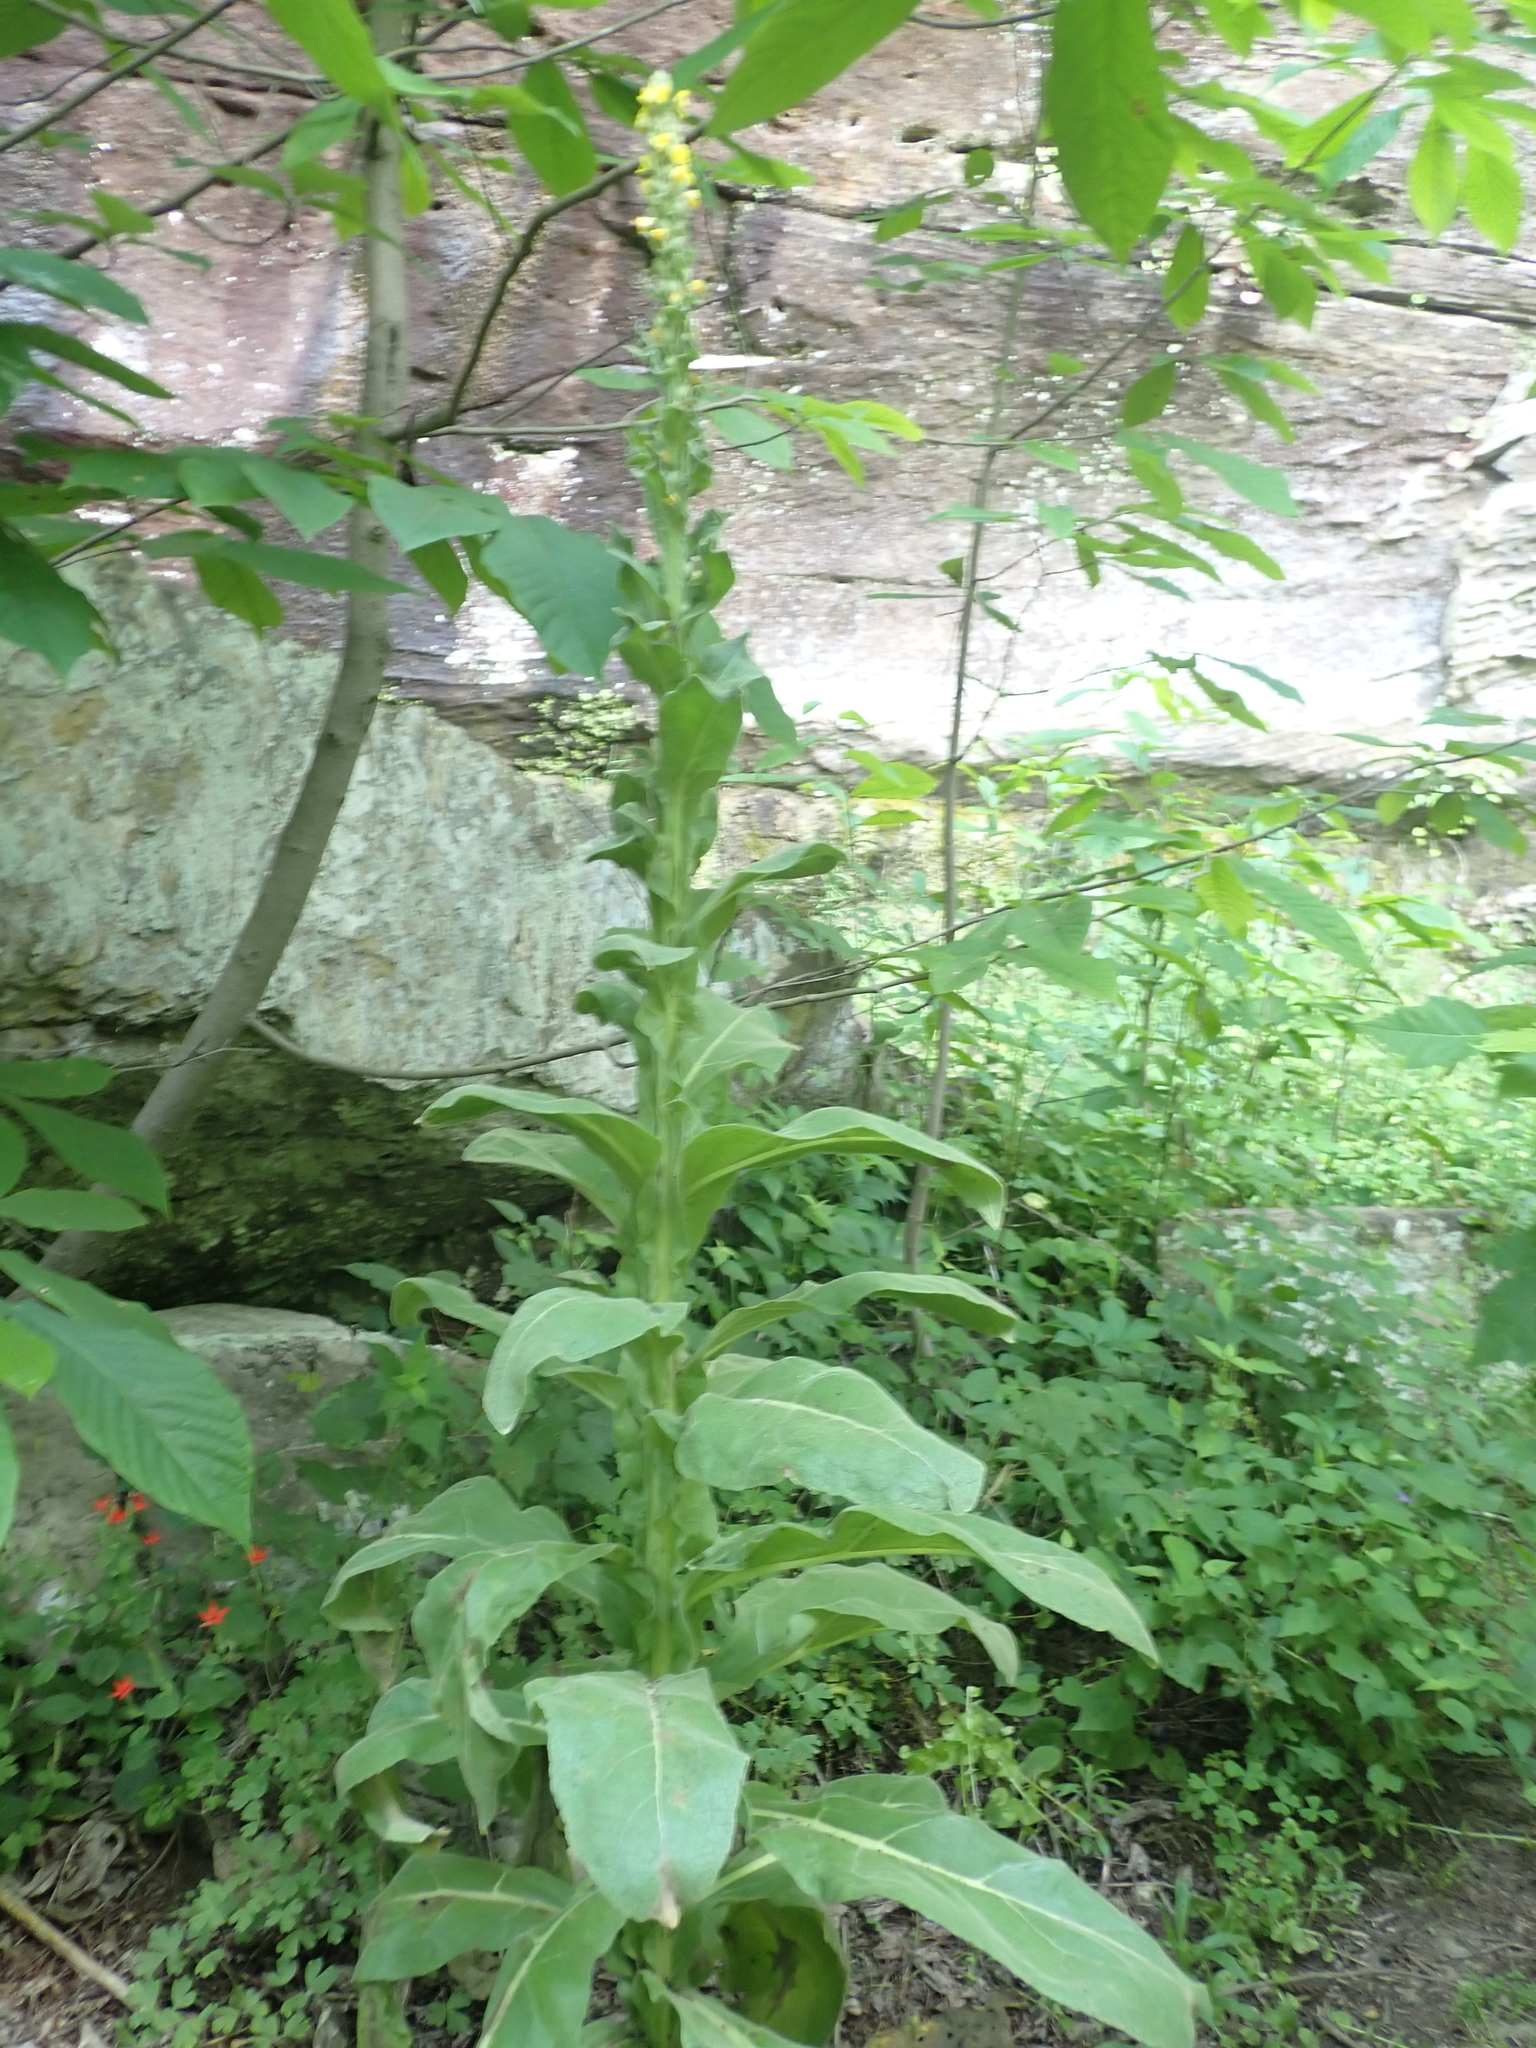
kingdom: Plantae
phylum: Tracheophyta
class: Magnoliopsida
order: Lamiales
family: Scrophulariaceae
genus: Verbascum
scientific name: Verbascum thapsus
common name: Common mullein
